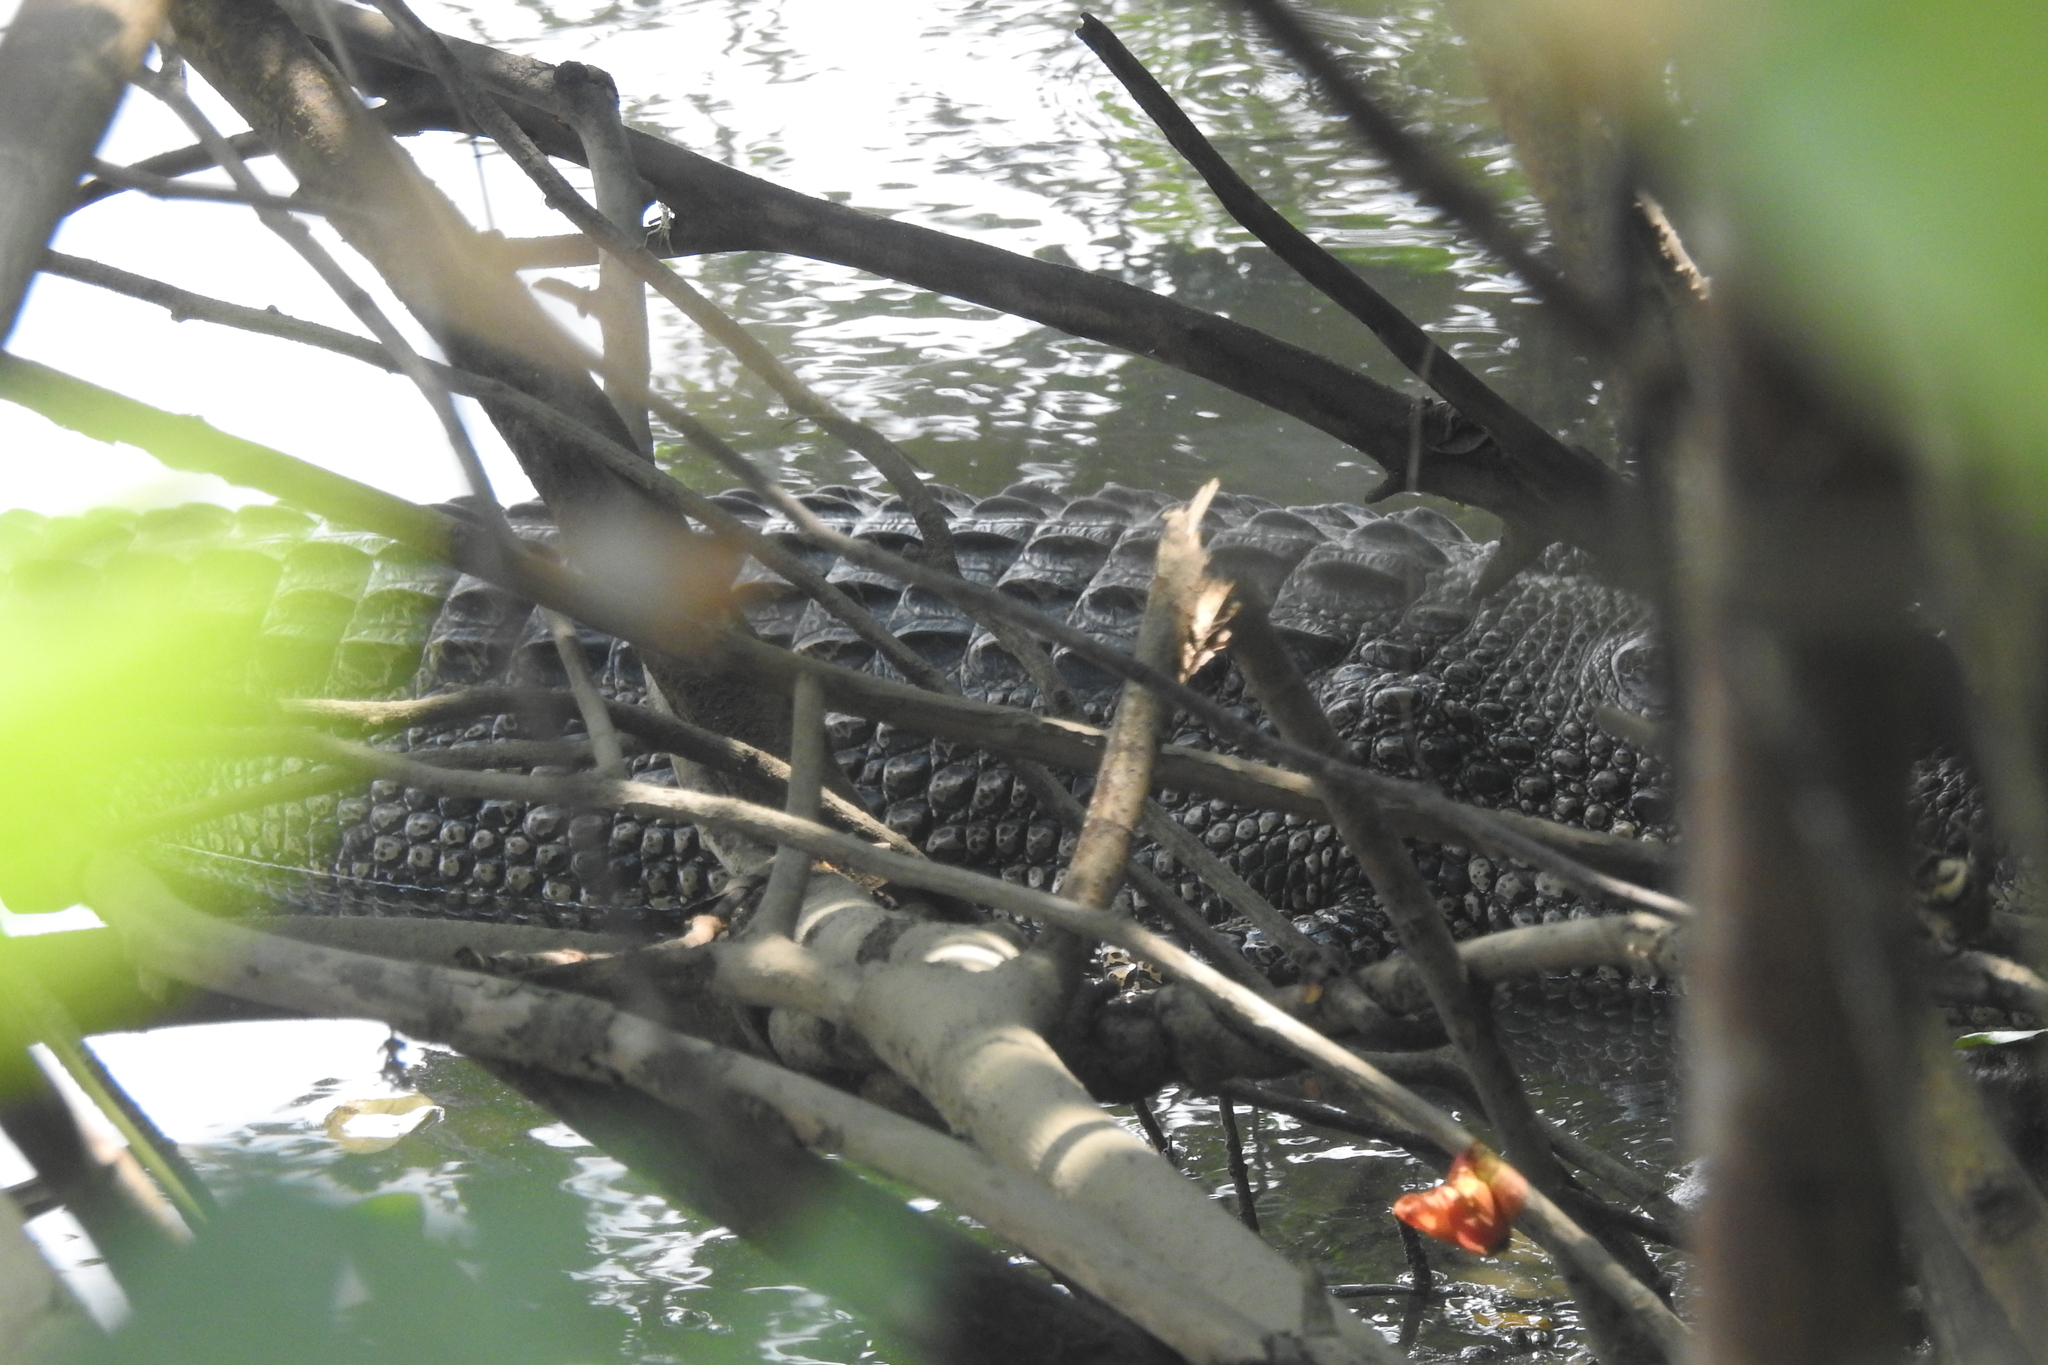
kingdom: Animalia
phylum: Chordata
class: Crocodylia
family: Crocodylidae
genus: Crocodylus
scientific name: Crocodylus porosus
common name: Saltwater crocodile
